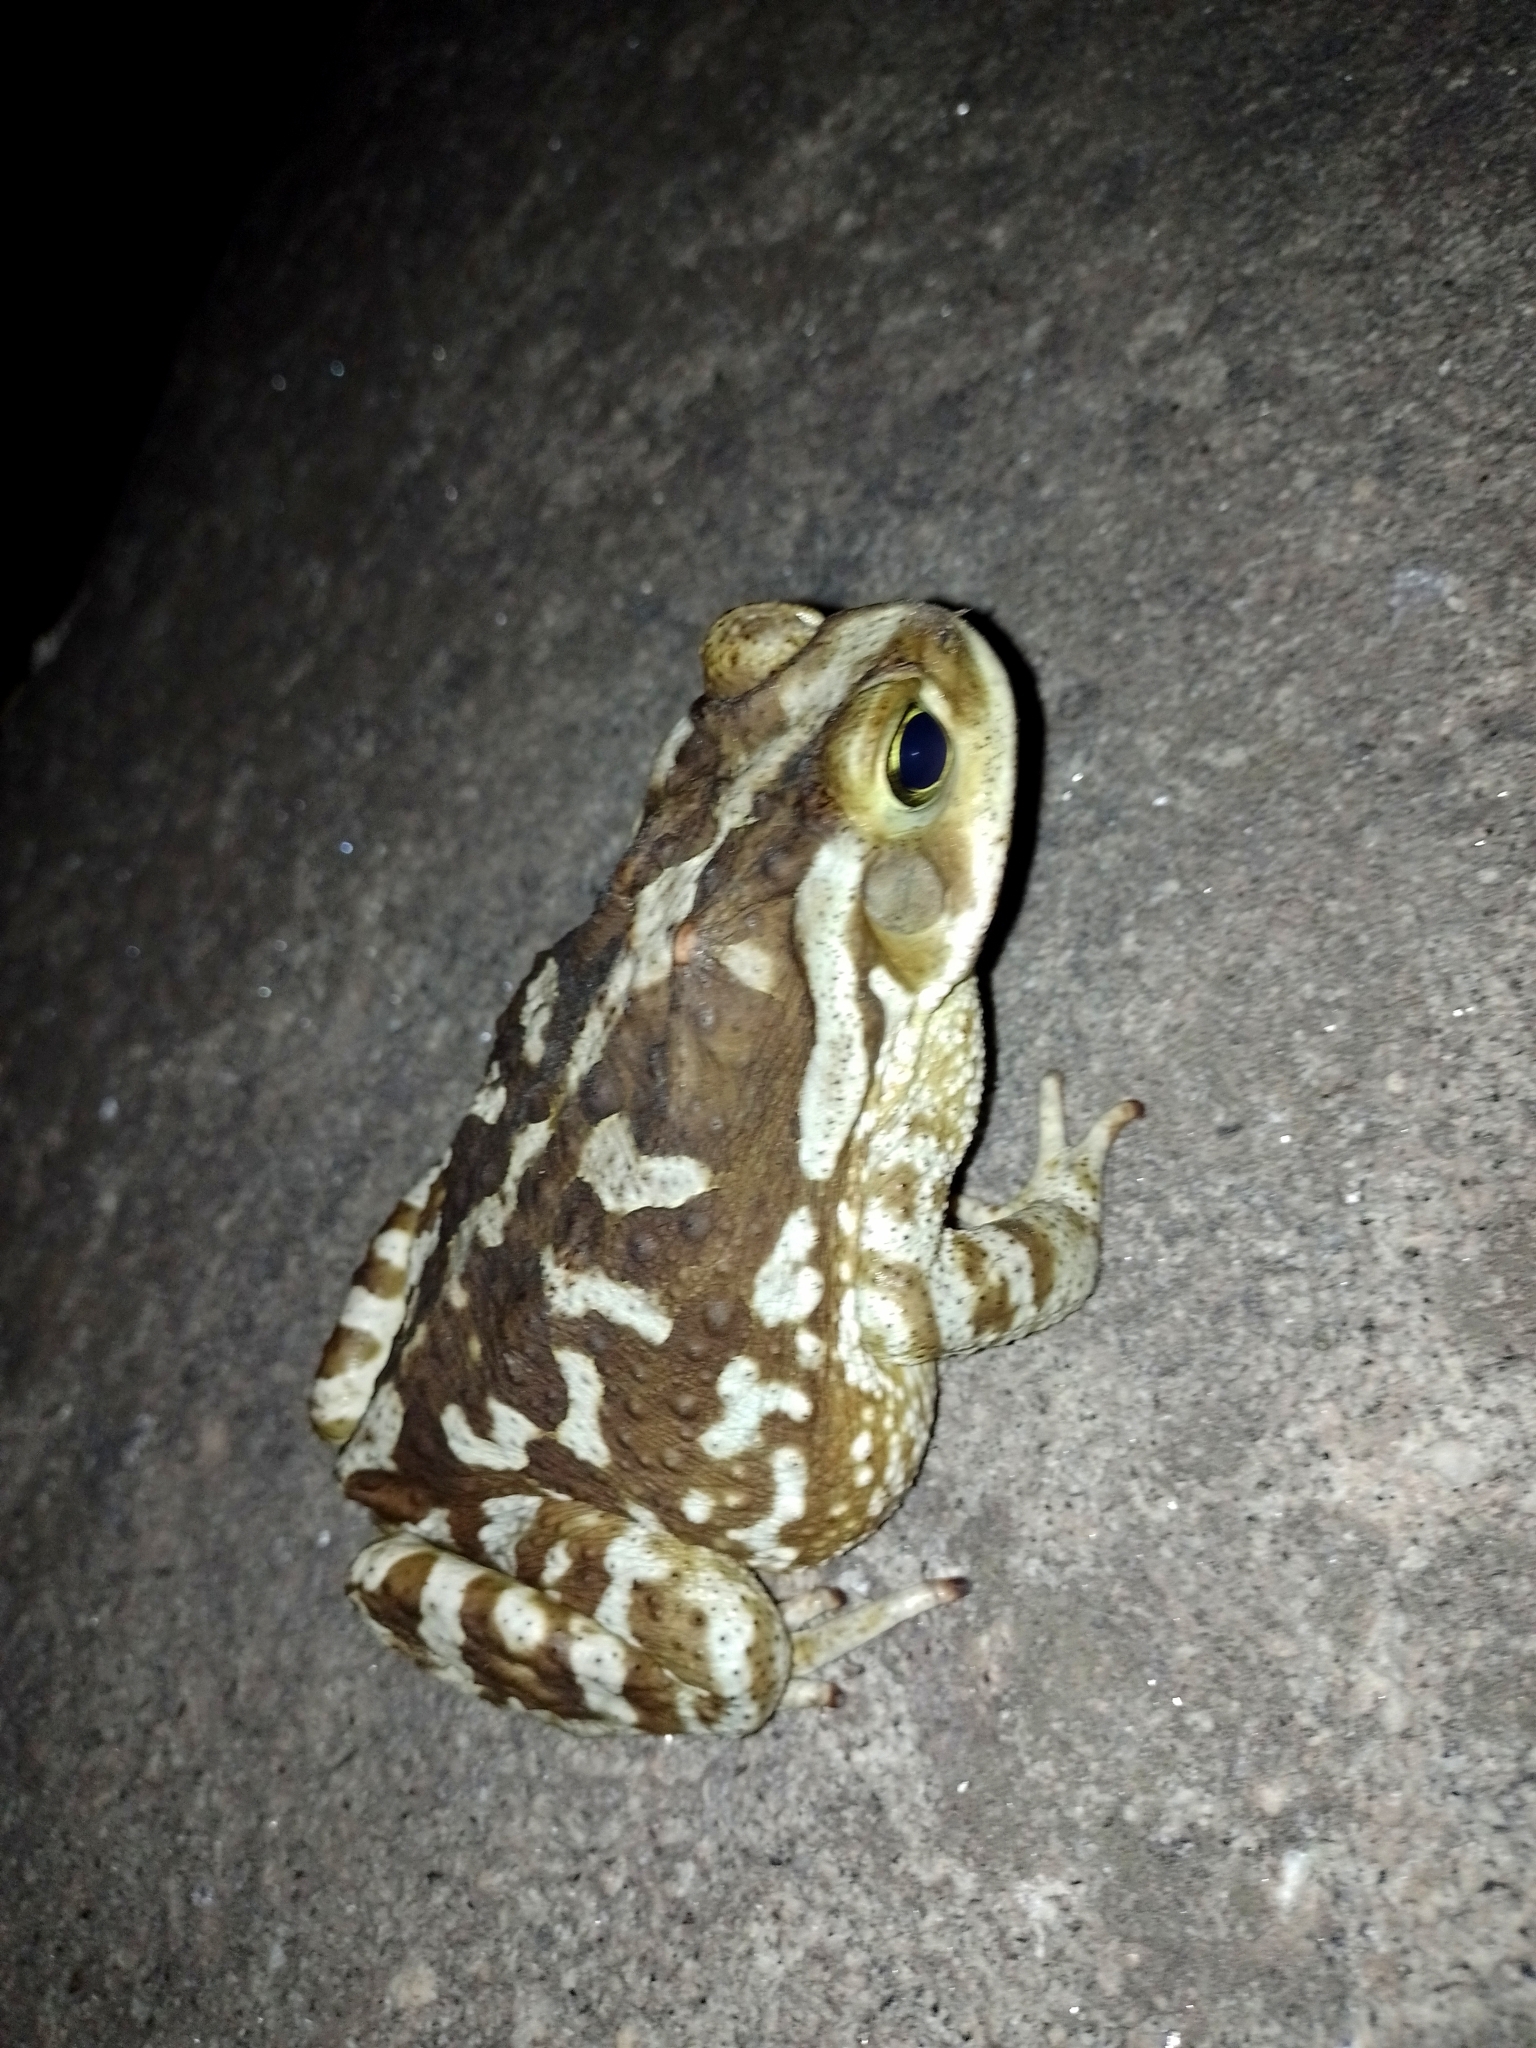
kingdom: Animalia
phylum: Chordata
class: Amphibia
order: Anura
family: Bufonidae
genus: Rhinella
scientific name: Rhinella arenarum
